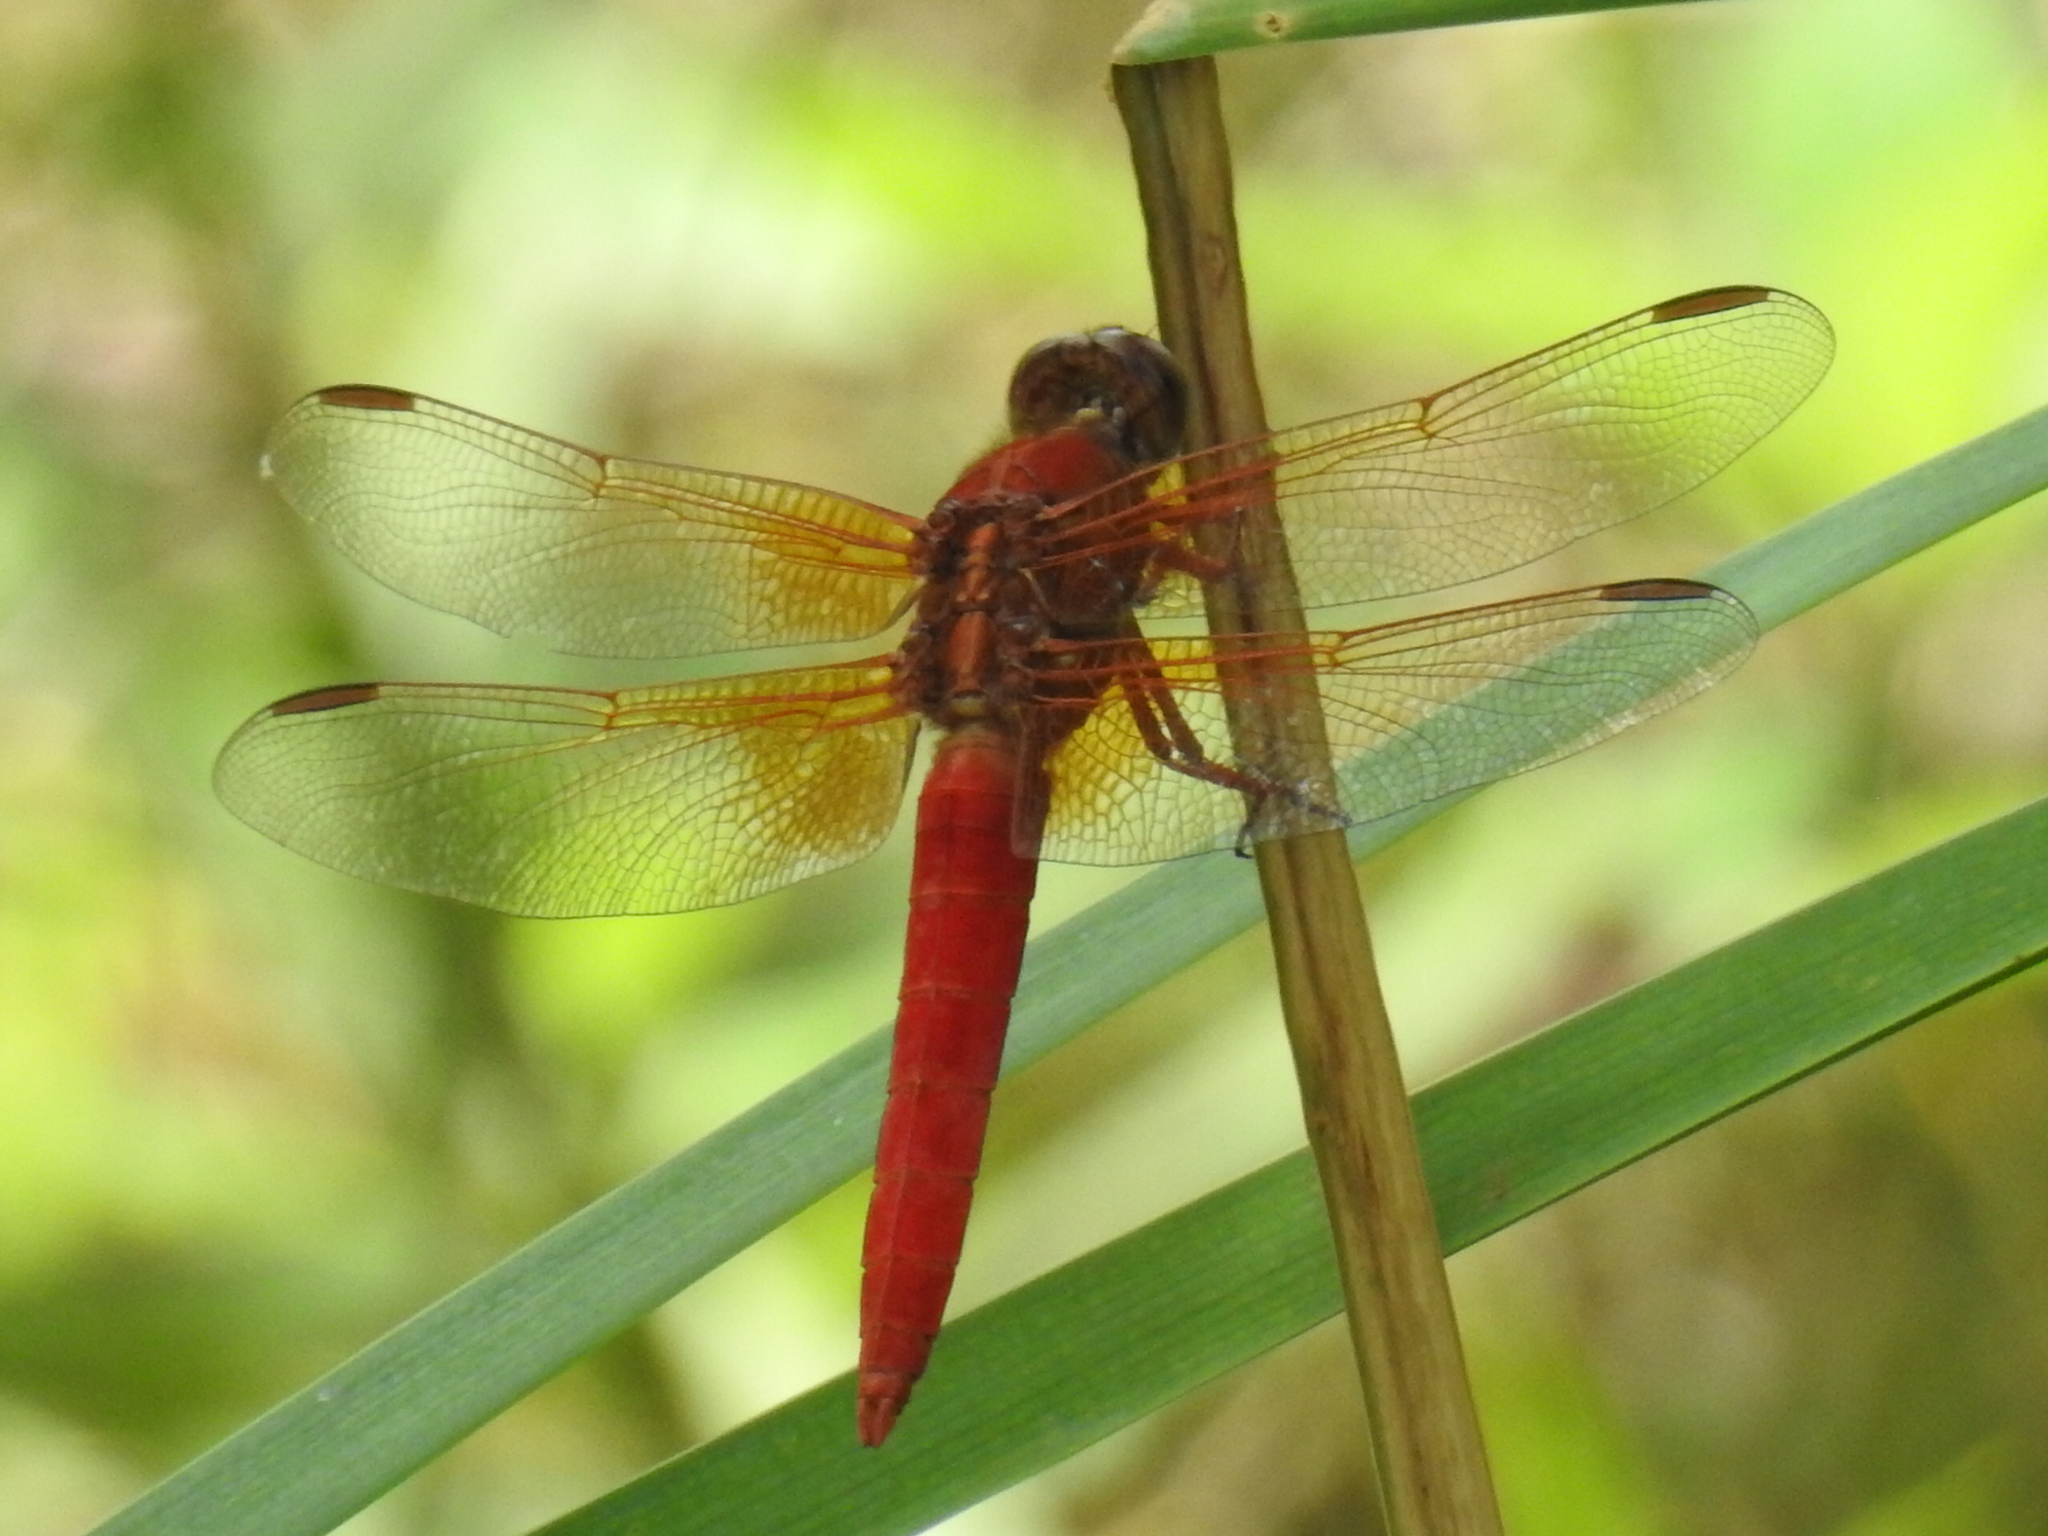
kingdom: Animalia
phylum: Arthropoda
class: Insecta
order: Odonata
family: Libellulidae
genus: Libellula
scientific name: Libellula croceipennis
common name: Neon skimmer
